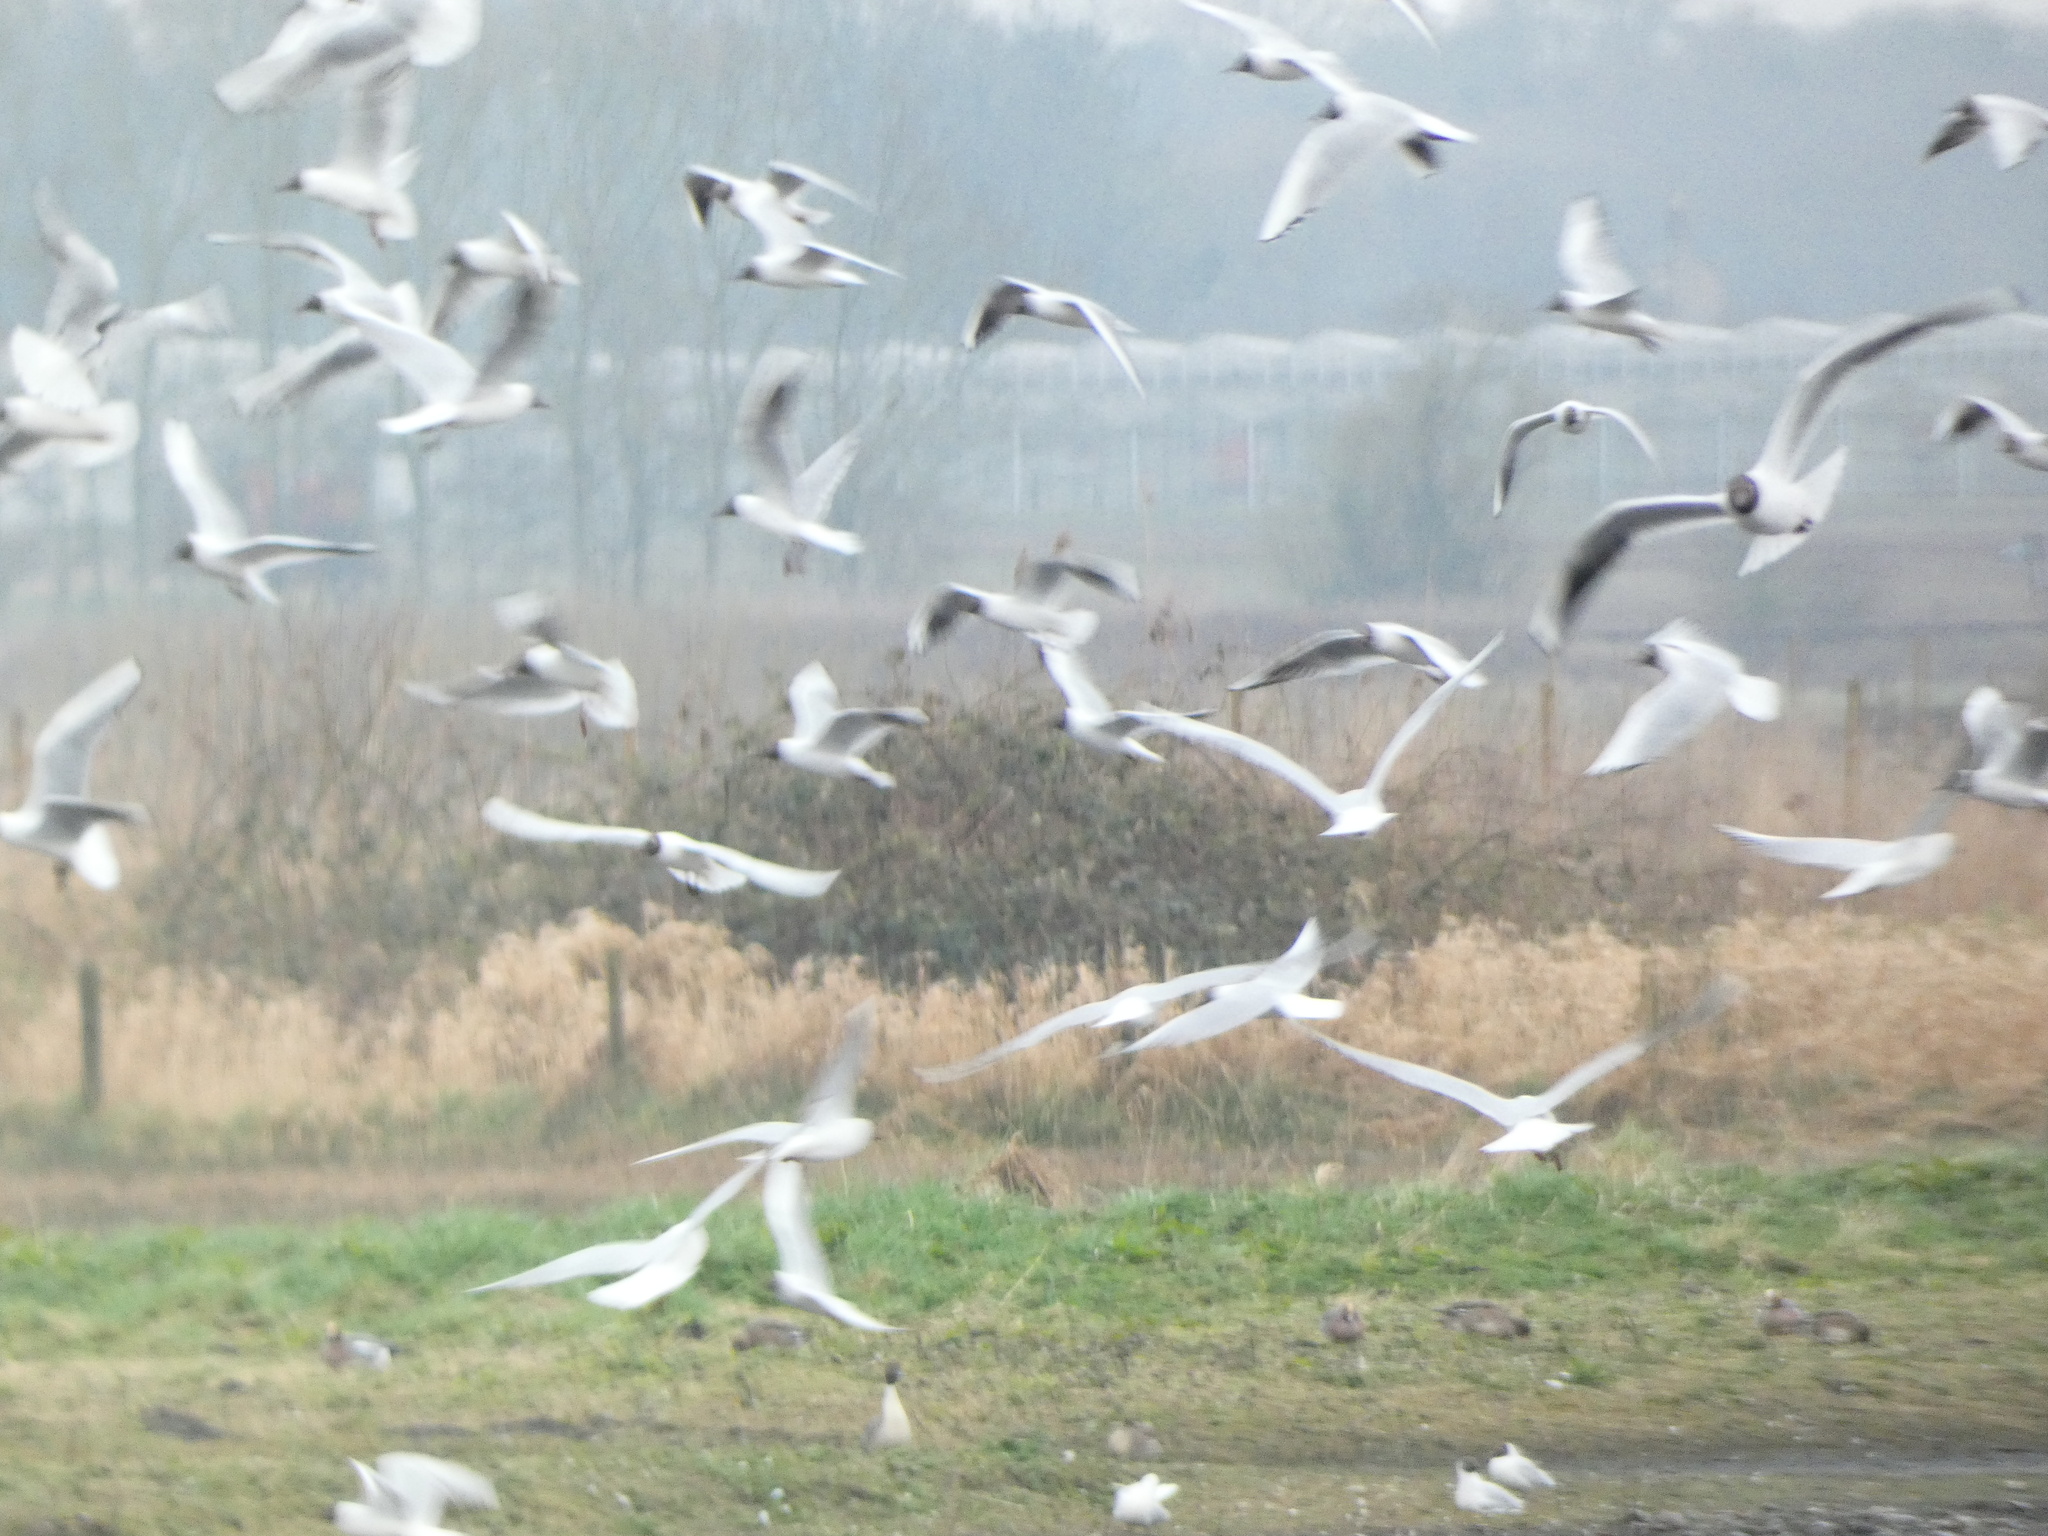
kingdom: Animalia
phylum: Chordata
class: Aves
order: Charadriiformes
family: Laridae
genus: Chroicocephalus
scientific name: Chroicocephalus ridibundus
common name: Black-headed gull
